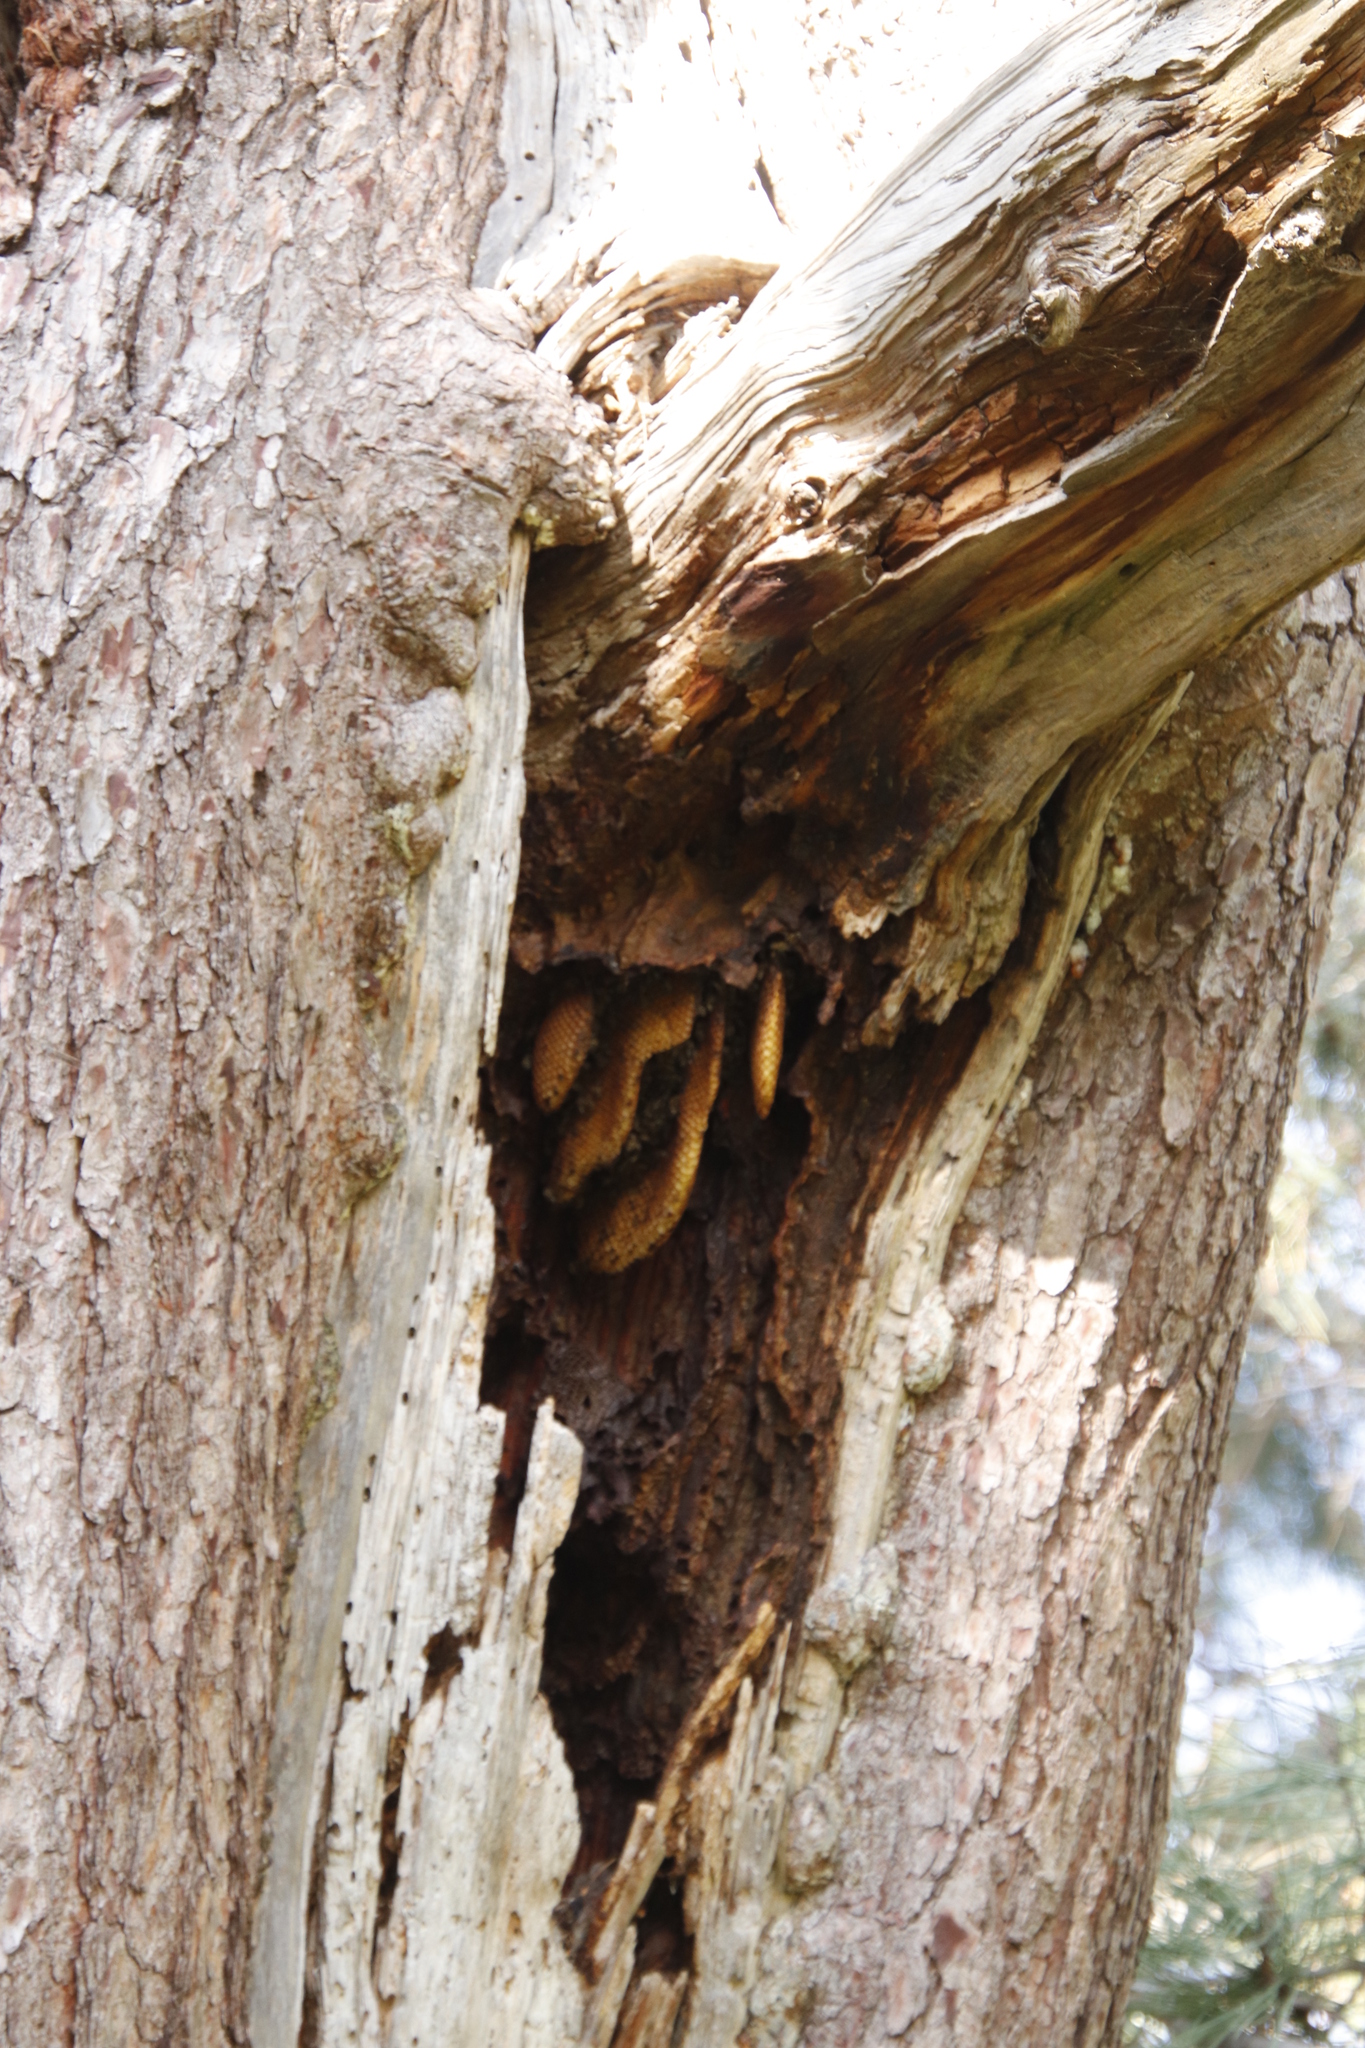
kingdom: Animalia
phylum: Arthropoda
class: Insecta
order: Hymenoptera
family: Apidae
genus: Apis
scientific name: Apis mellifera
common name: Honey bee
